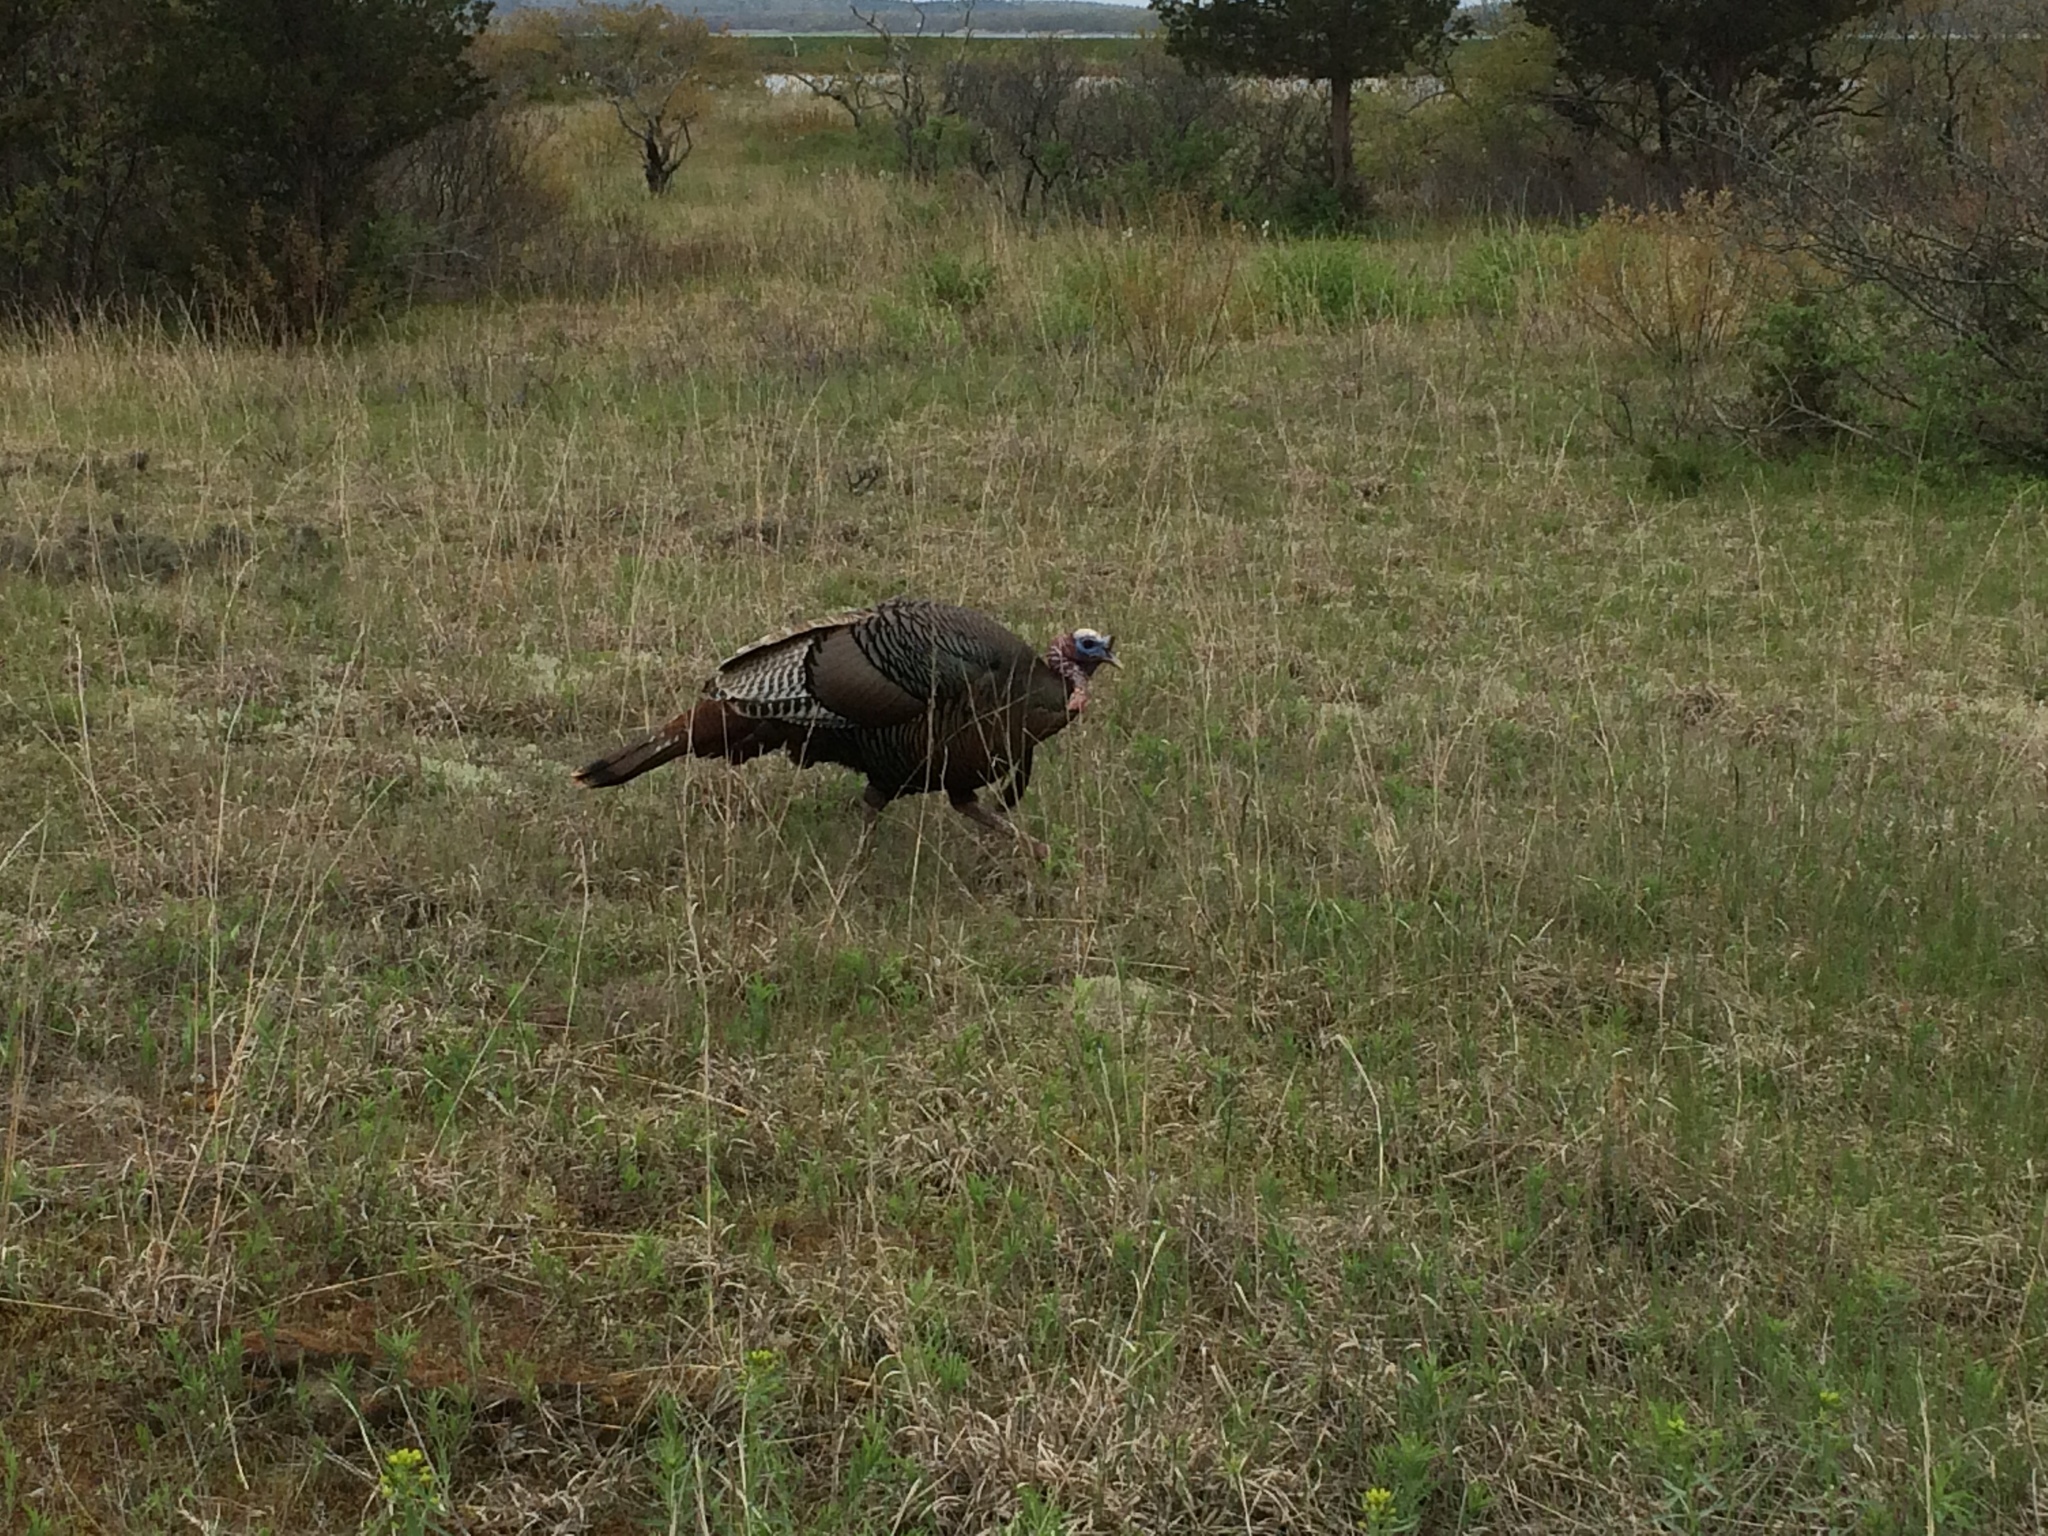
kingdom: Animalia
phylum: Chordata
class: Aves
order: Galliformes
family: Phasianidae
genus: Meleagris
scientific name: Meleagris gallopavo
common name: Wild turkey
